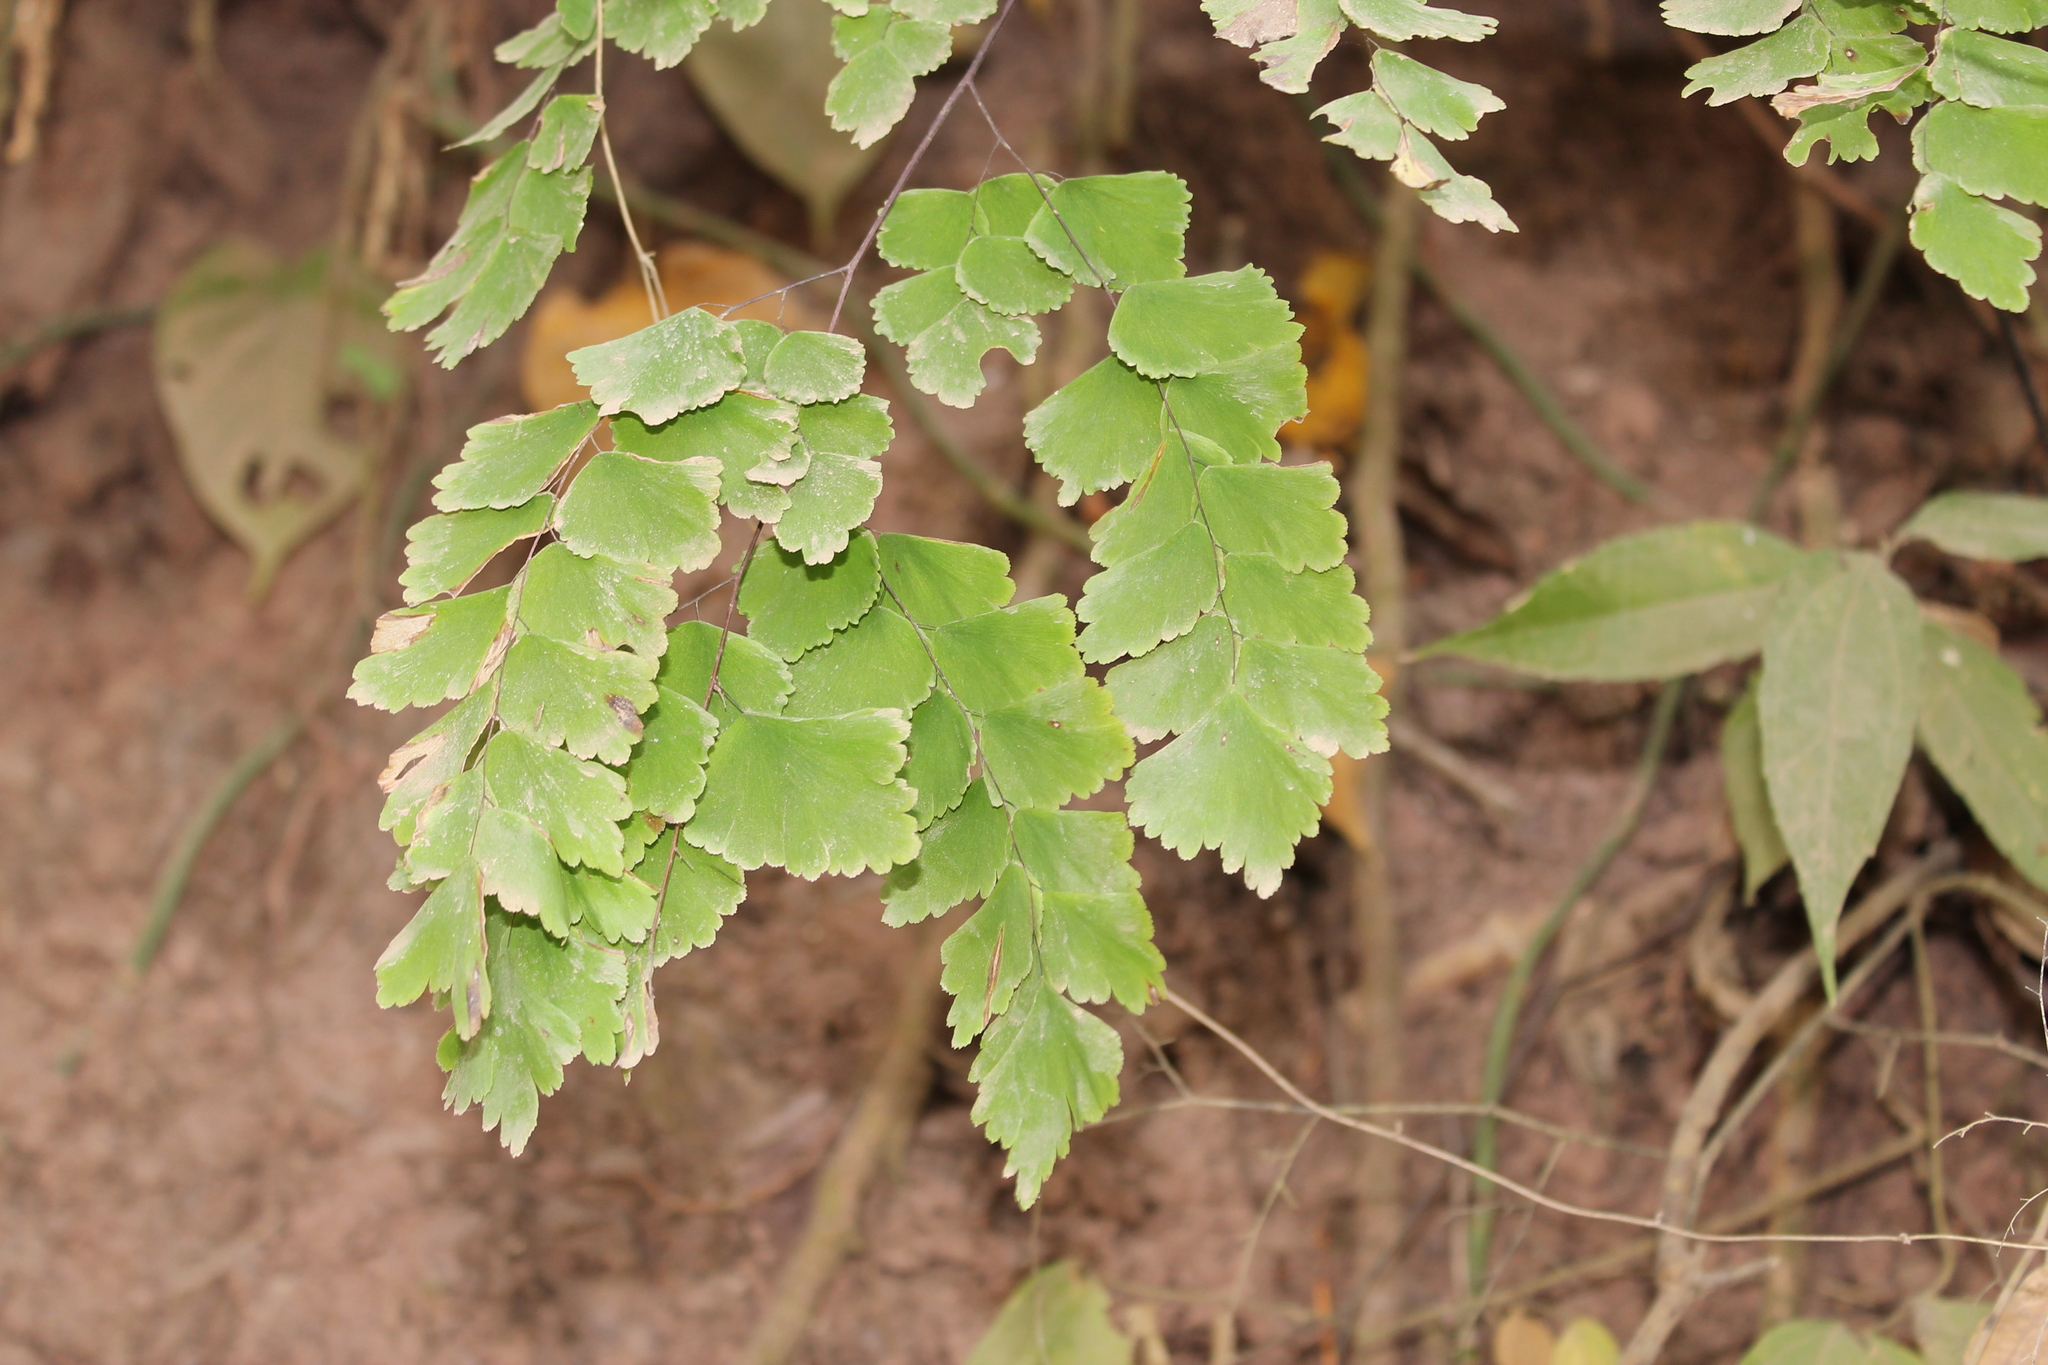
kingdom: Plantae
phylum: Tracheophyta
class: Polypodiopsida
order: Polypodiales
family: Pteridaceae
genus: Adiantum
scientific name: Adiantum amplum
